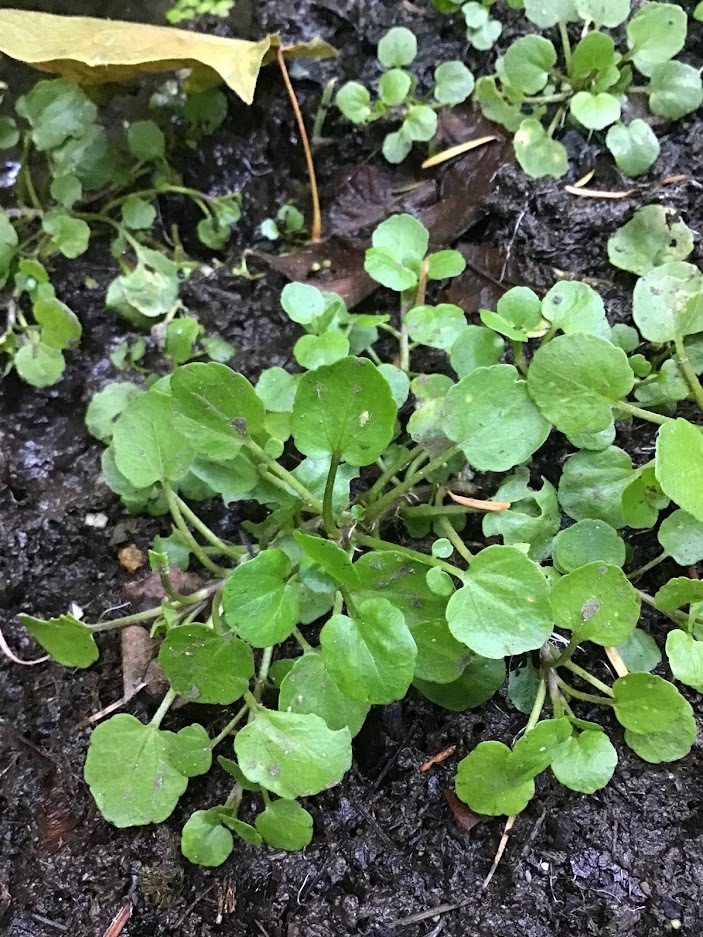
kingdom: Plantae
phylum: Tracheophyta
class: Magnoliopsida
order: Brassicales
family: Brassicaceae
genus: Nasturtium
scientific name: Nasturtium officinale
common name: Watercress
